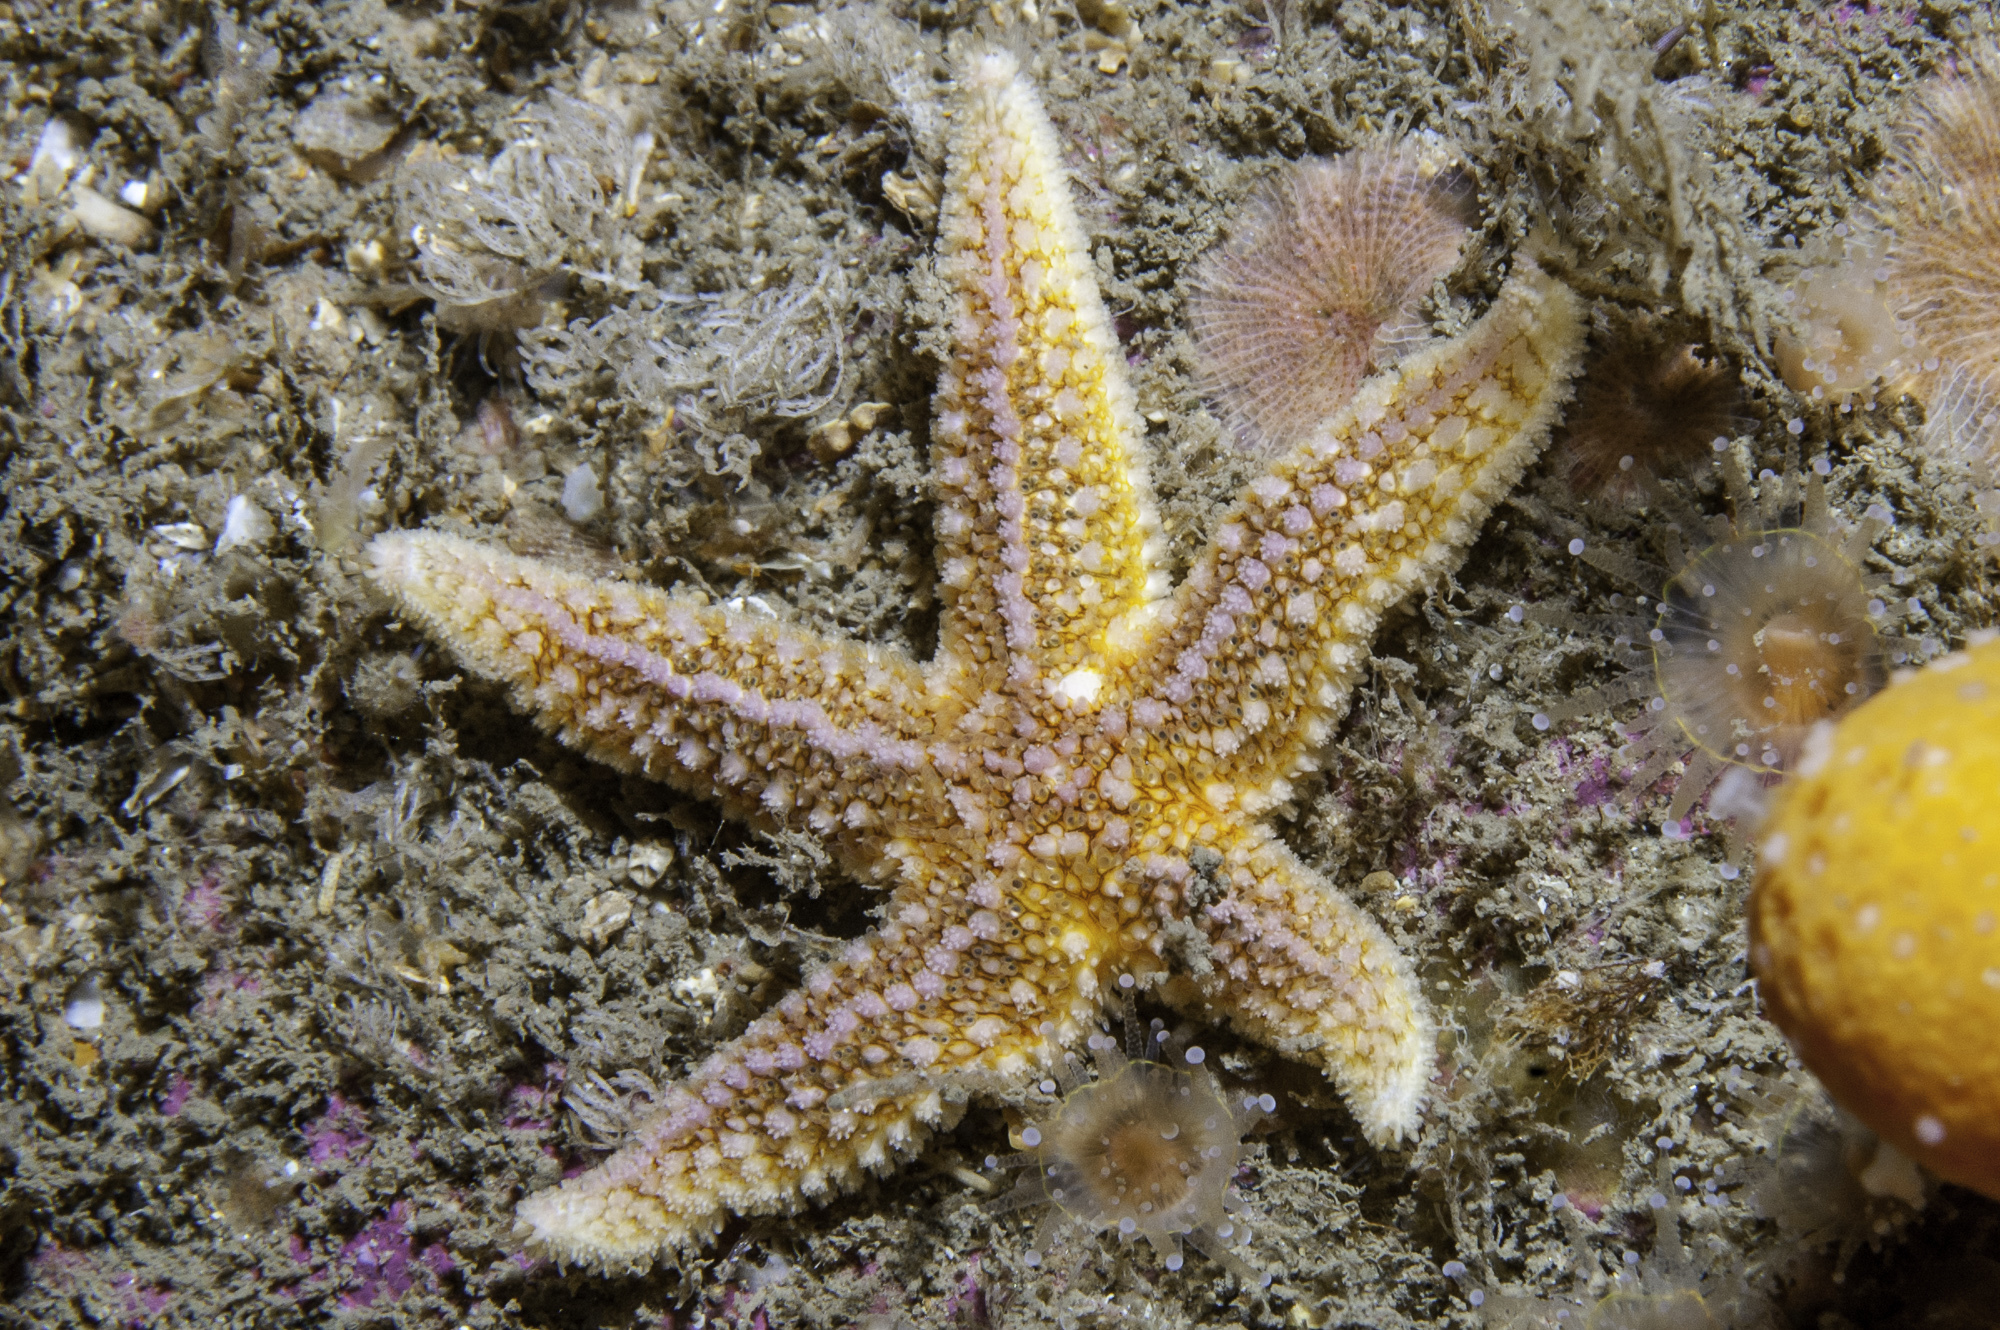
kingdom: Animalia
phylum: Echinodermata
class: Asteroidea
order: Forcipulatida
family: Asteriidae
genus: Asterias
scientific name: Asterias rubens
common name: Common starfish
